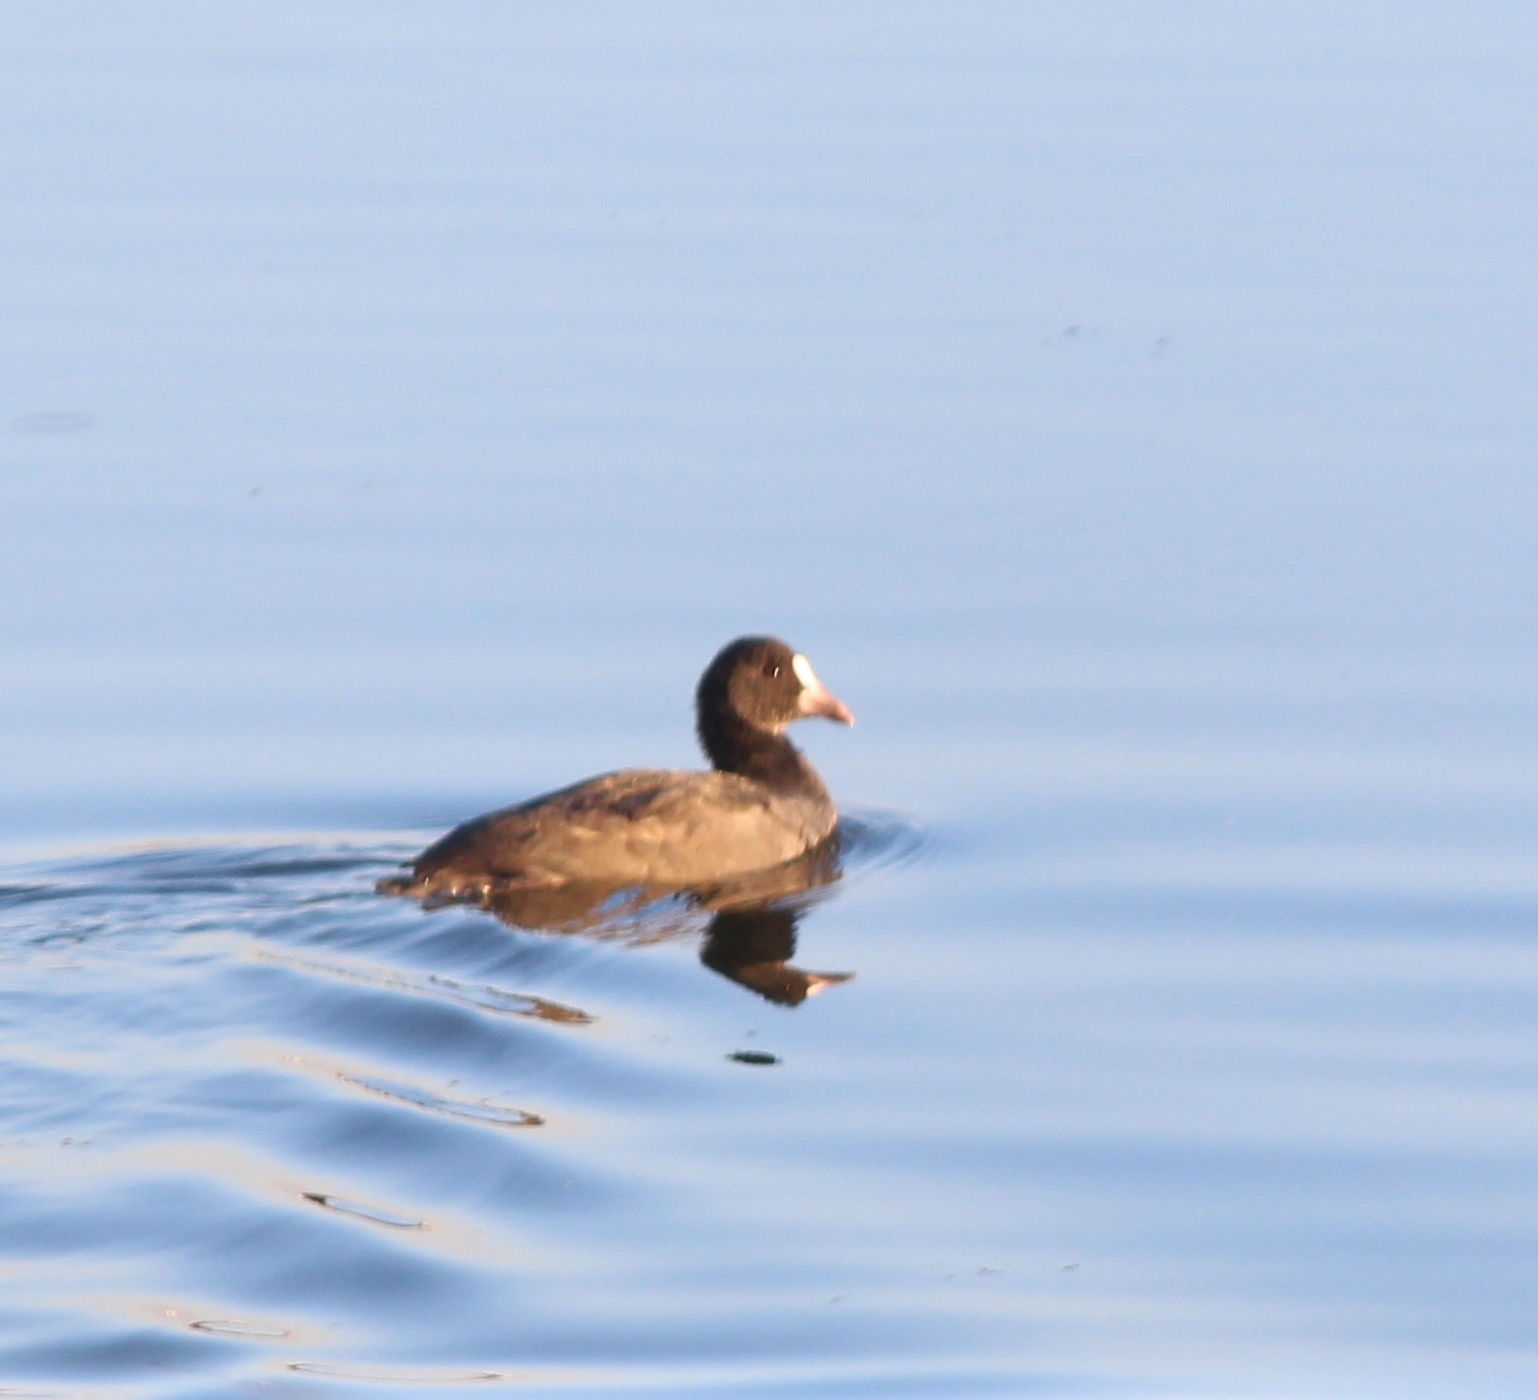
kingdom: Animalia
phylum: Chordata
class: Aves
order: Gruiformes
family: Rallidae
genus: Fulica
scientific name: Fulica atra
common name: Eurasian coot
